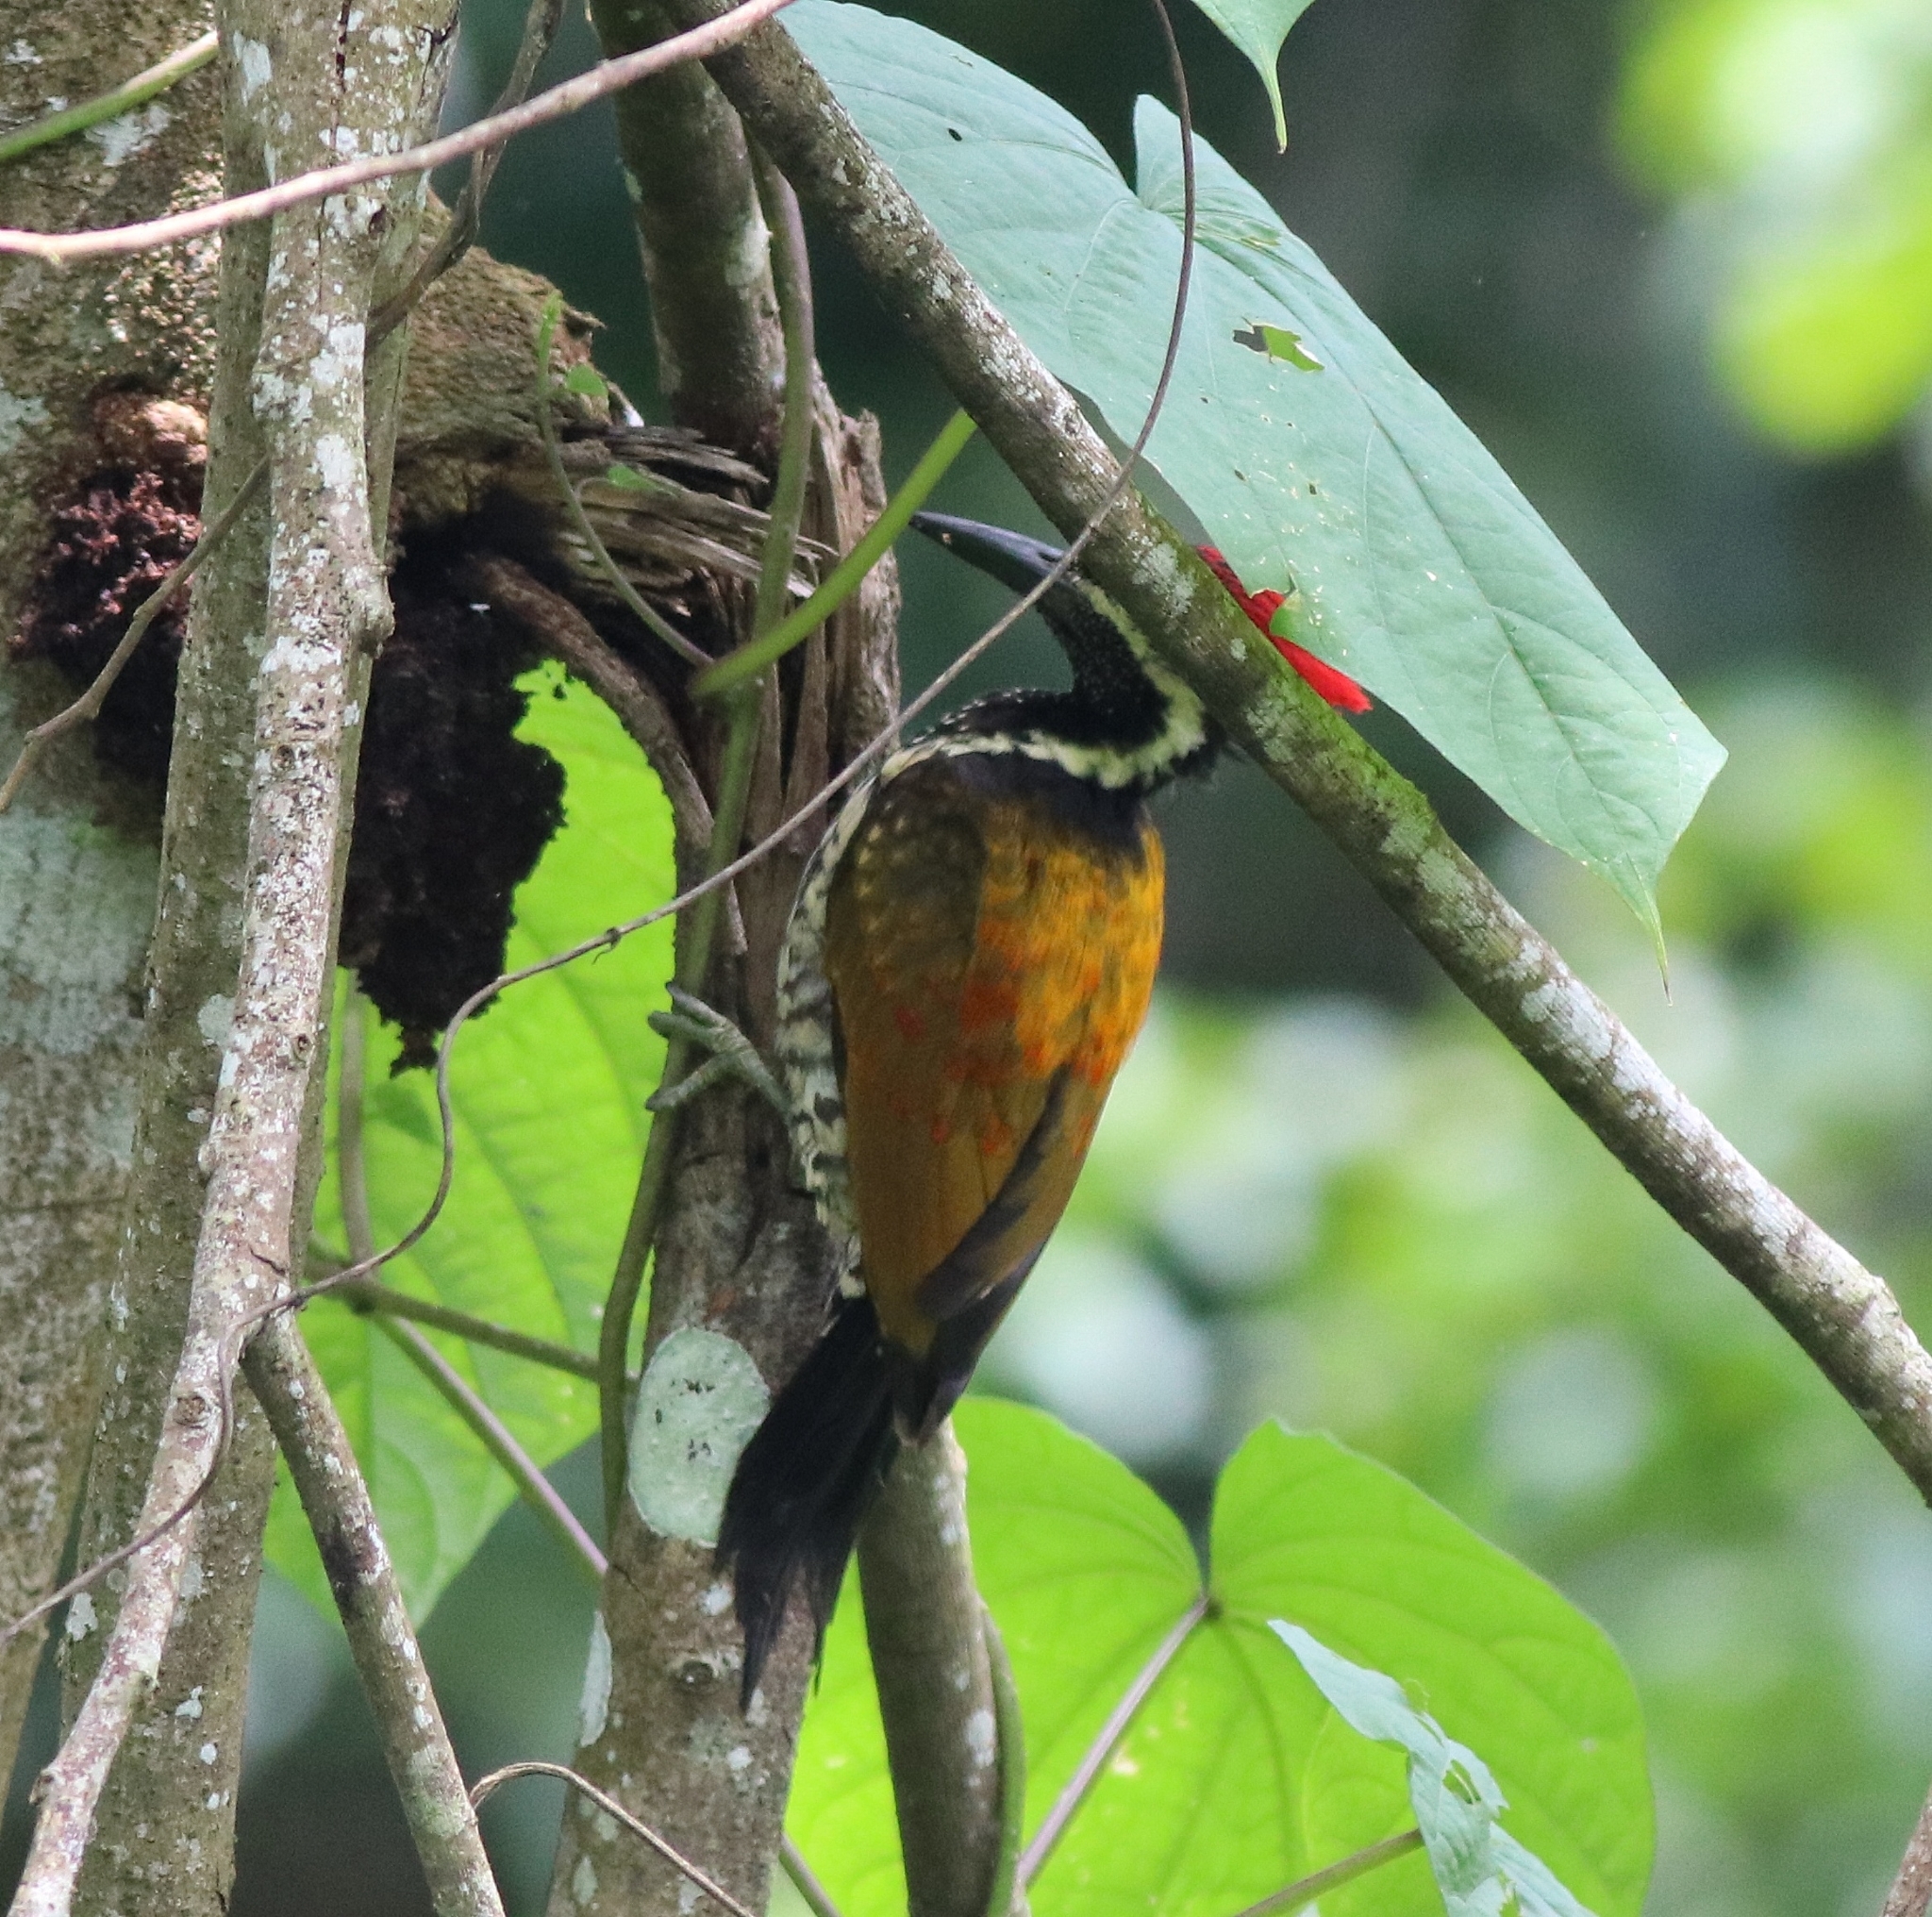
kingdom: Animalia
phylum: Chordata
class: Aves
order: Piciformes
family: Picidae
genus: Dinopium
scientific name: Dinopium benghalense
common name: Black-rumped flameback
